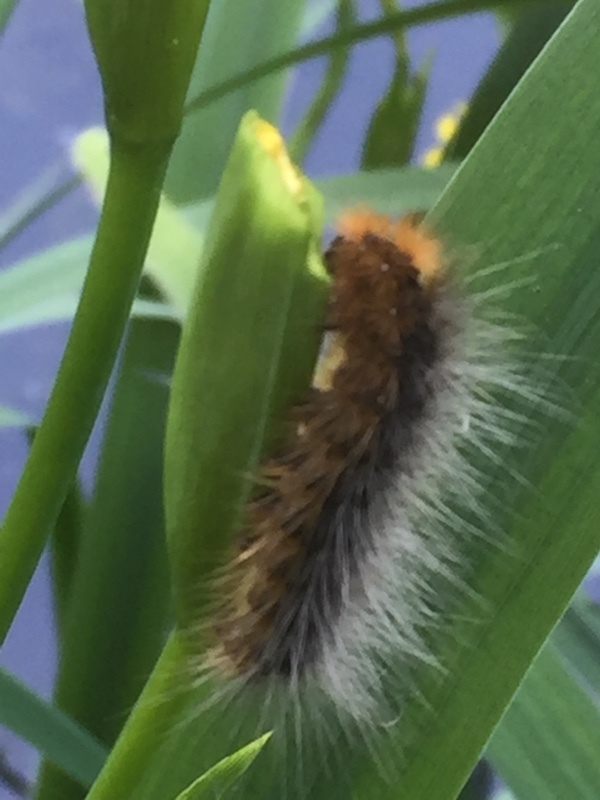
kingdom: Animalia
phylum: Arthropoda
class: Insecta
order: Lepidoptera
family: Erebidae
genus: Arctia
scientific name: Arctia caja
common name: Garden tiger
